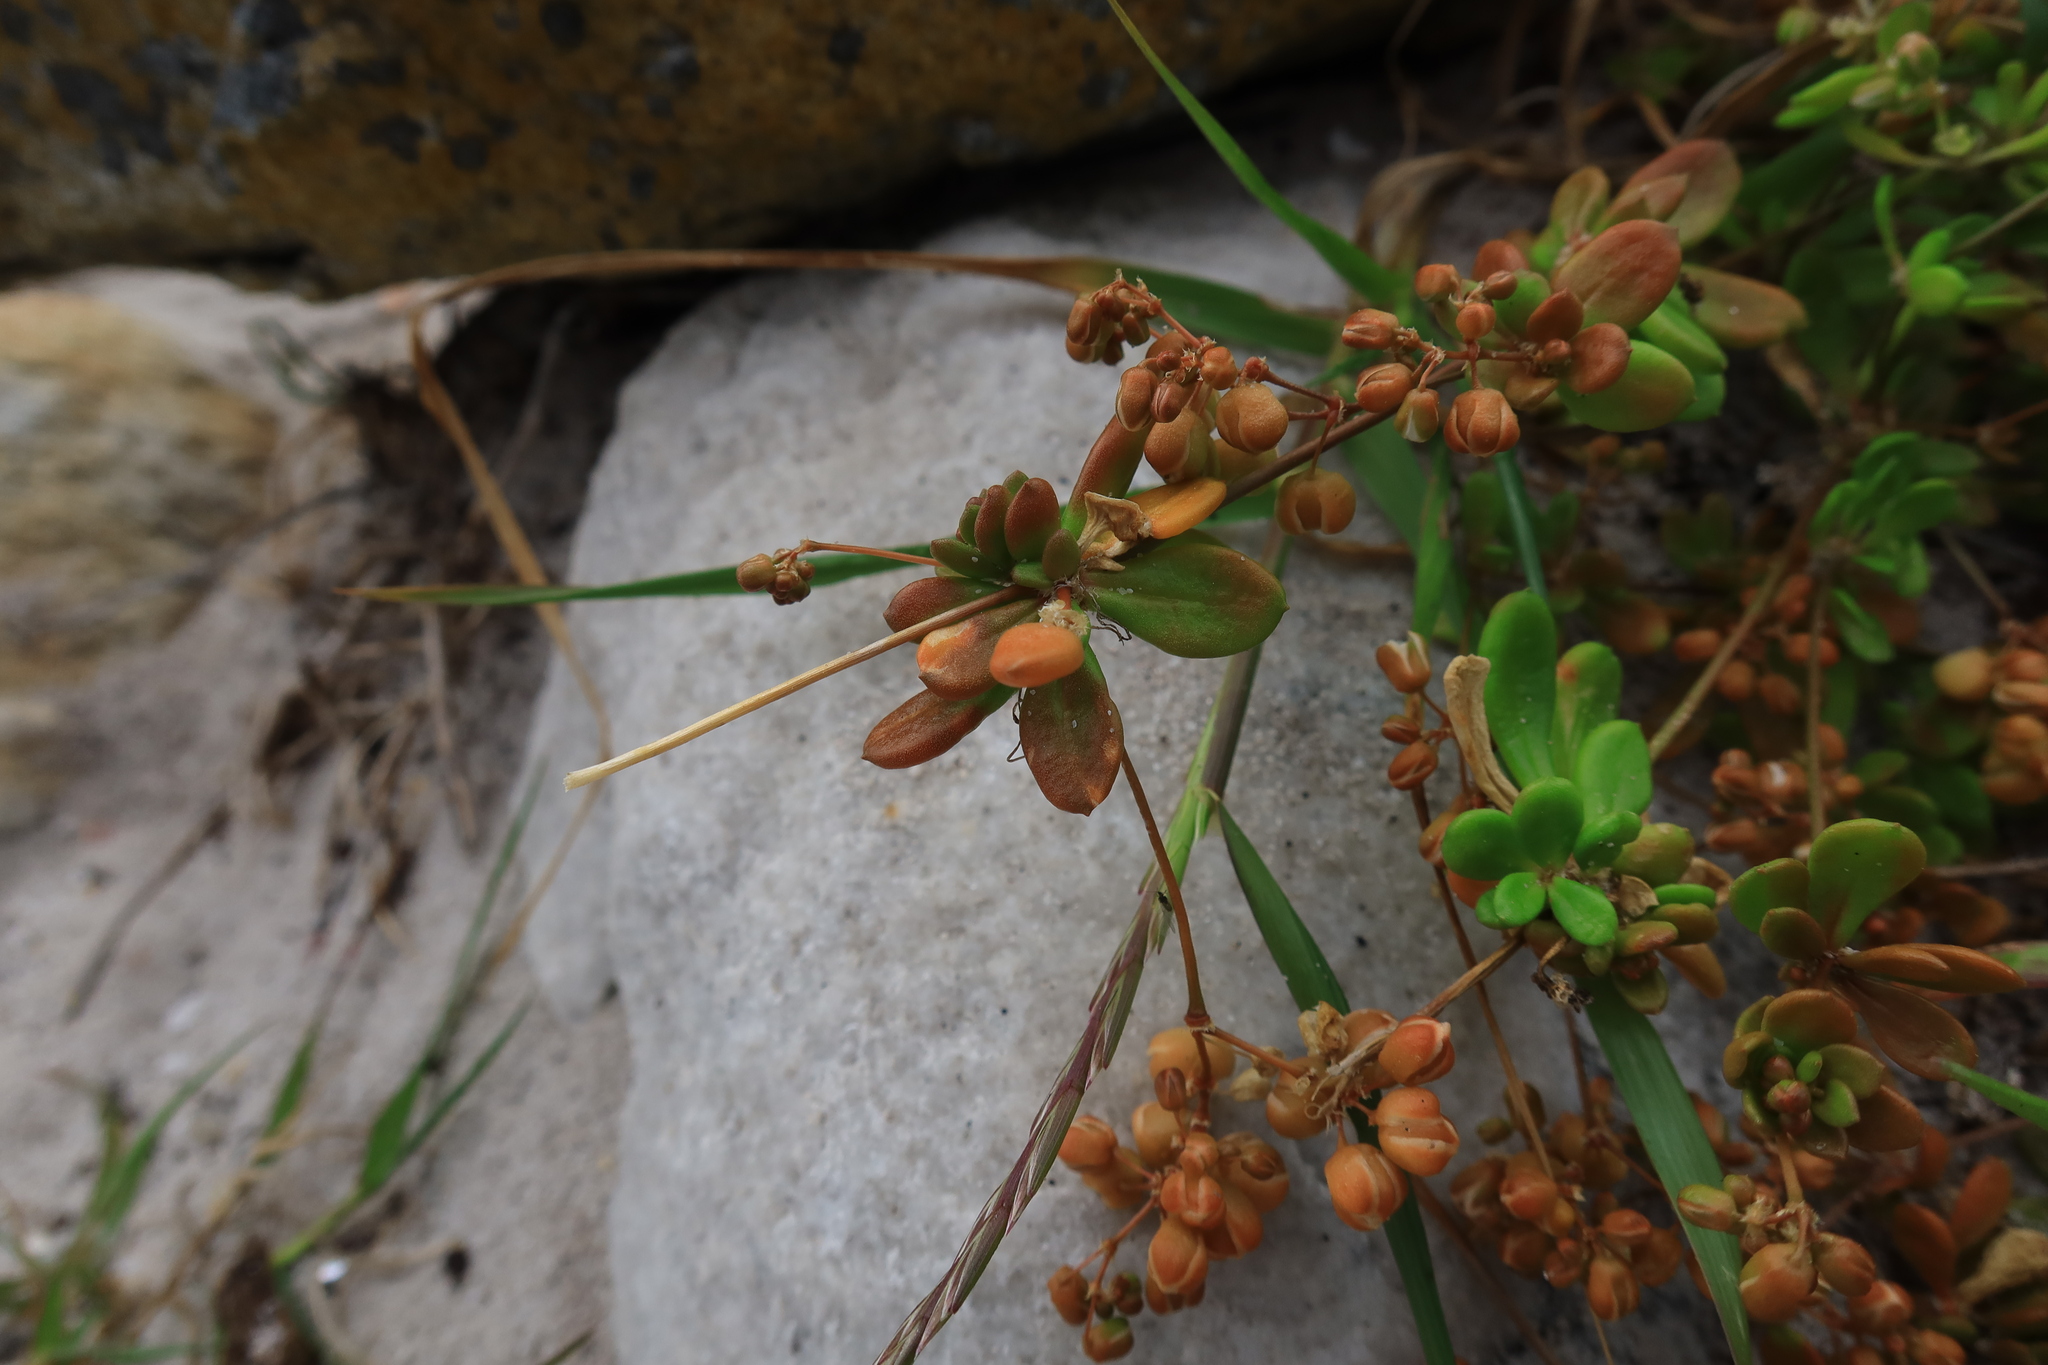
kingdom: Plantae
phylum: Tracheophyta
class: Magnoliopsida
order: Caryophyllales
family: Molluginaceae
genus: Pharnaceum
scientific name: Pharnaceum cordifolium
